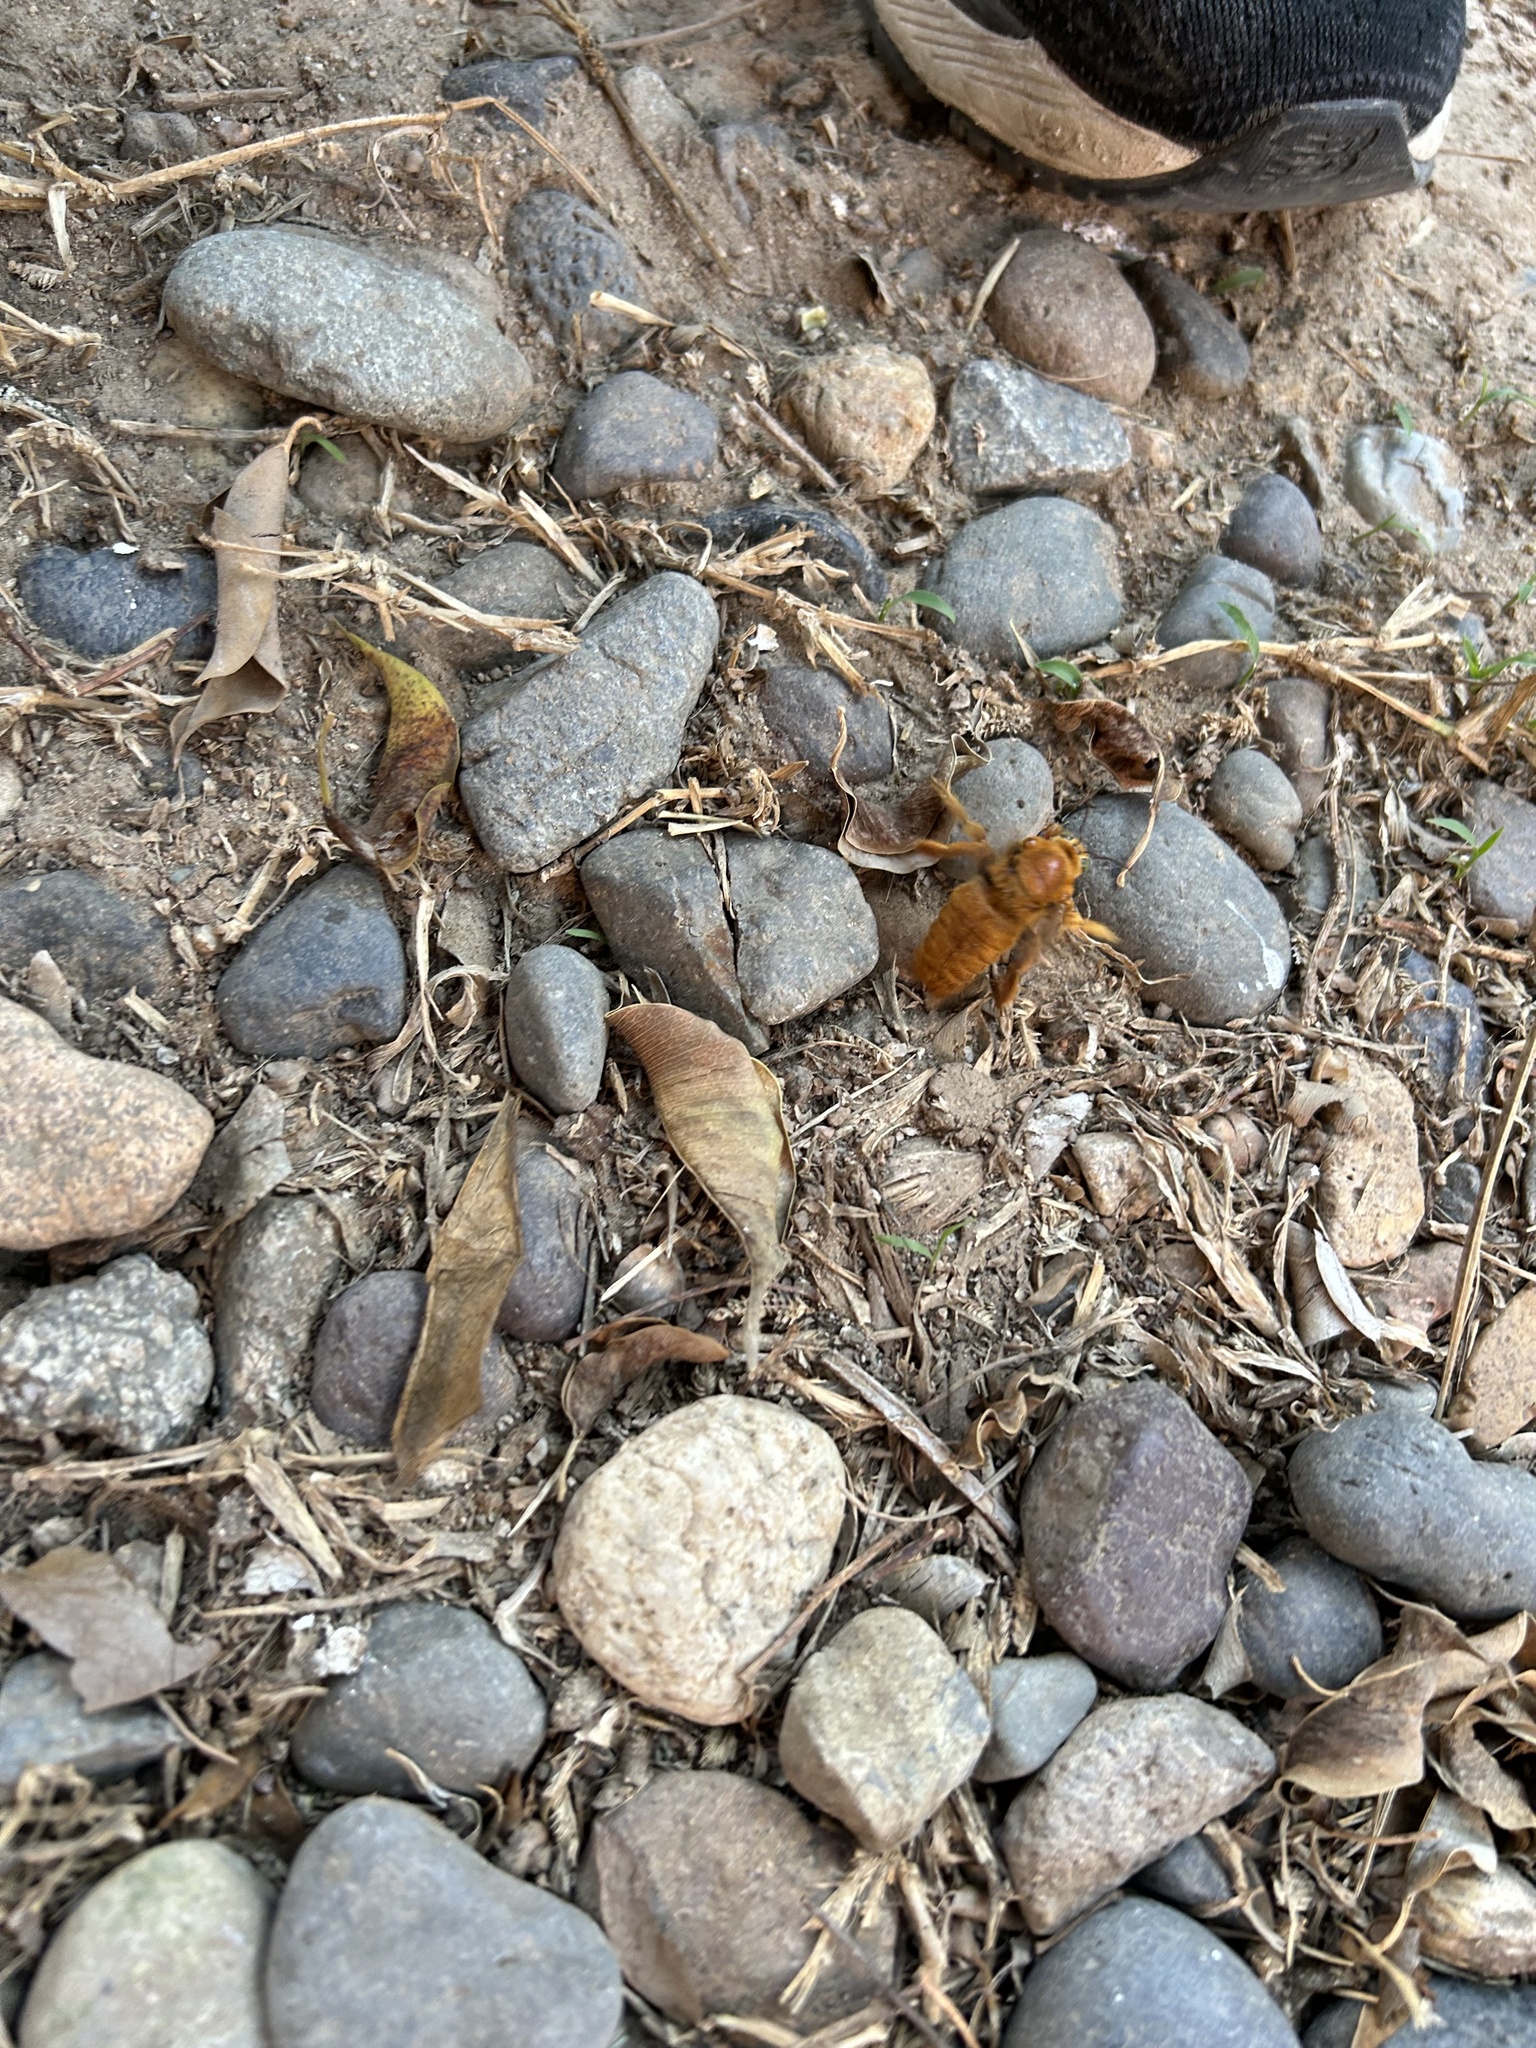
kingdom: Animalia
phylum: Arthropoda
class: Insecta
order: Hymenoptera
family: Apidae
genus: Xylocopa
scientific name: Xylocopa sonorina
